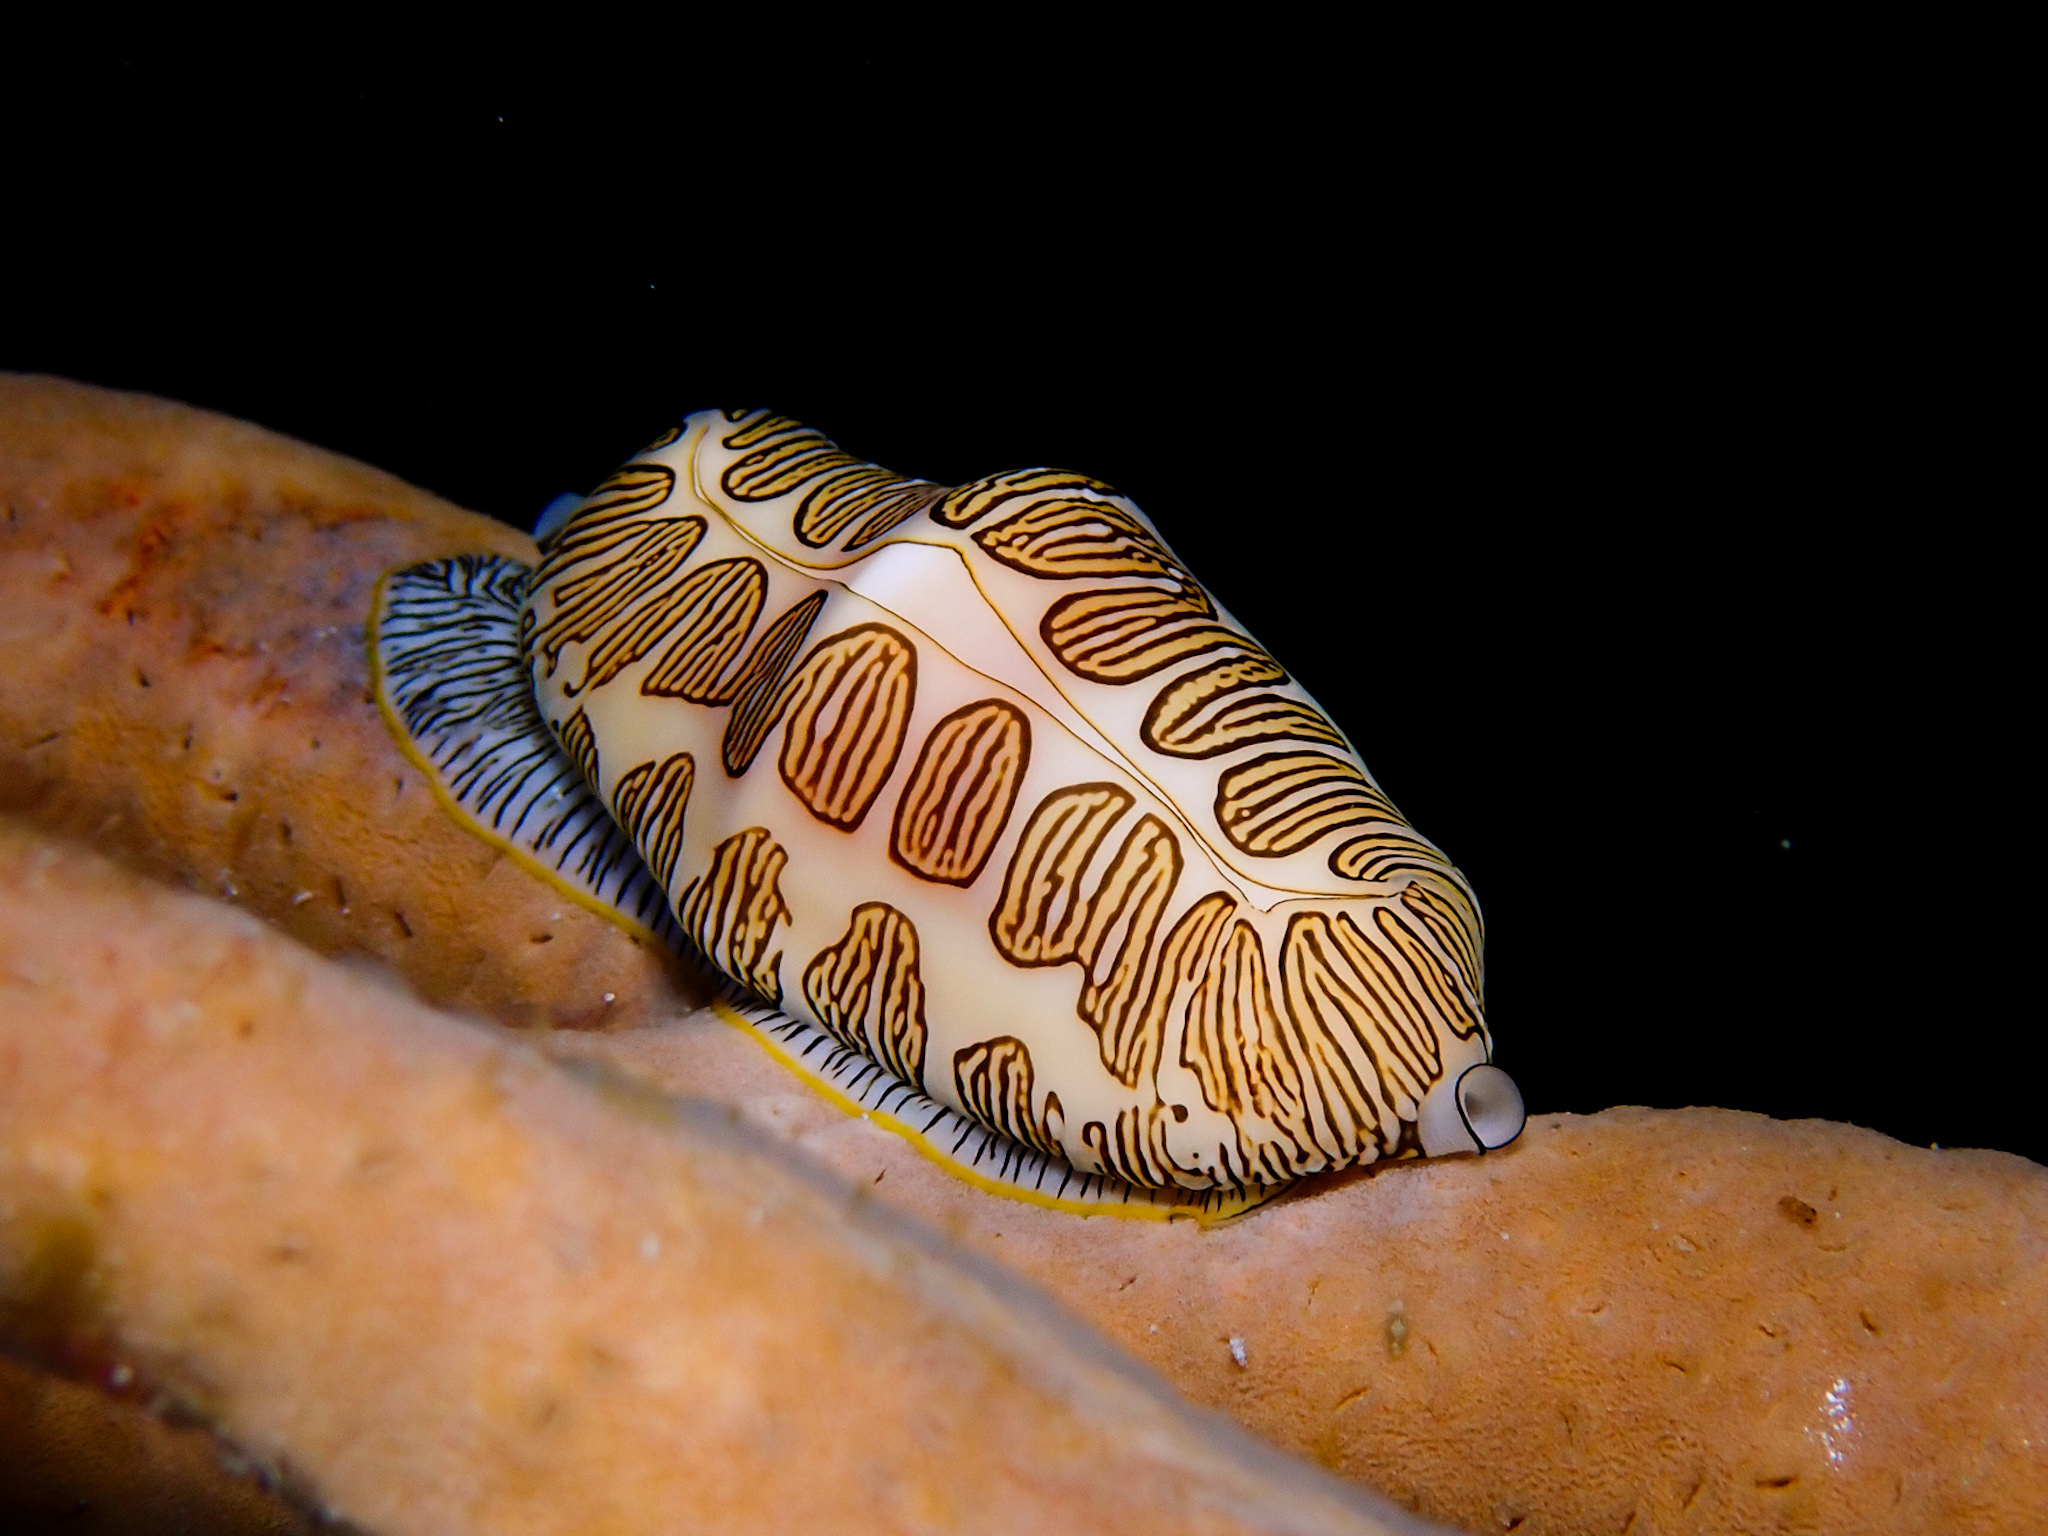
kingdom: Animalia
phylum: Mollusca
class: Gastropoda
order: Littorinimorpha
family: Ovulidae
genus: Cyphoma
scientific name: Cyphoma signatum
